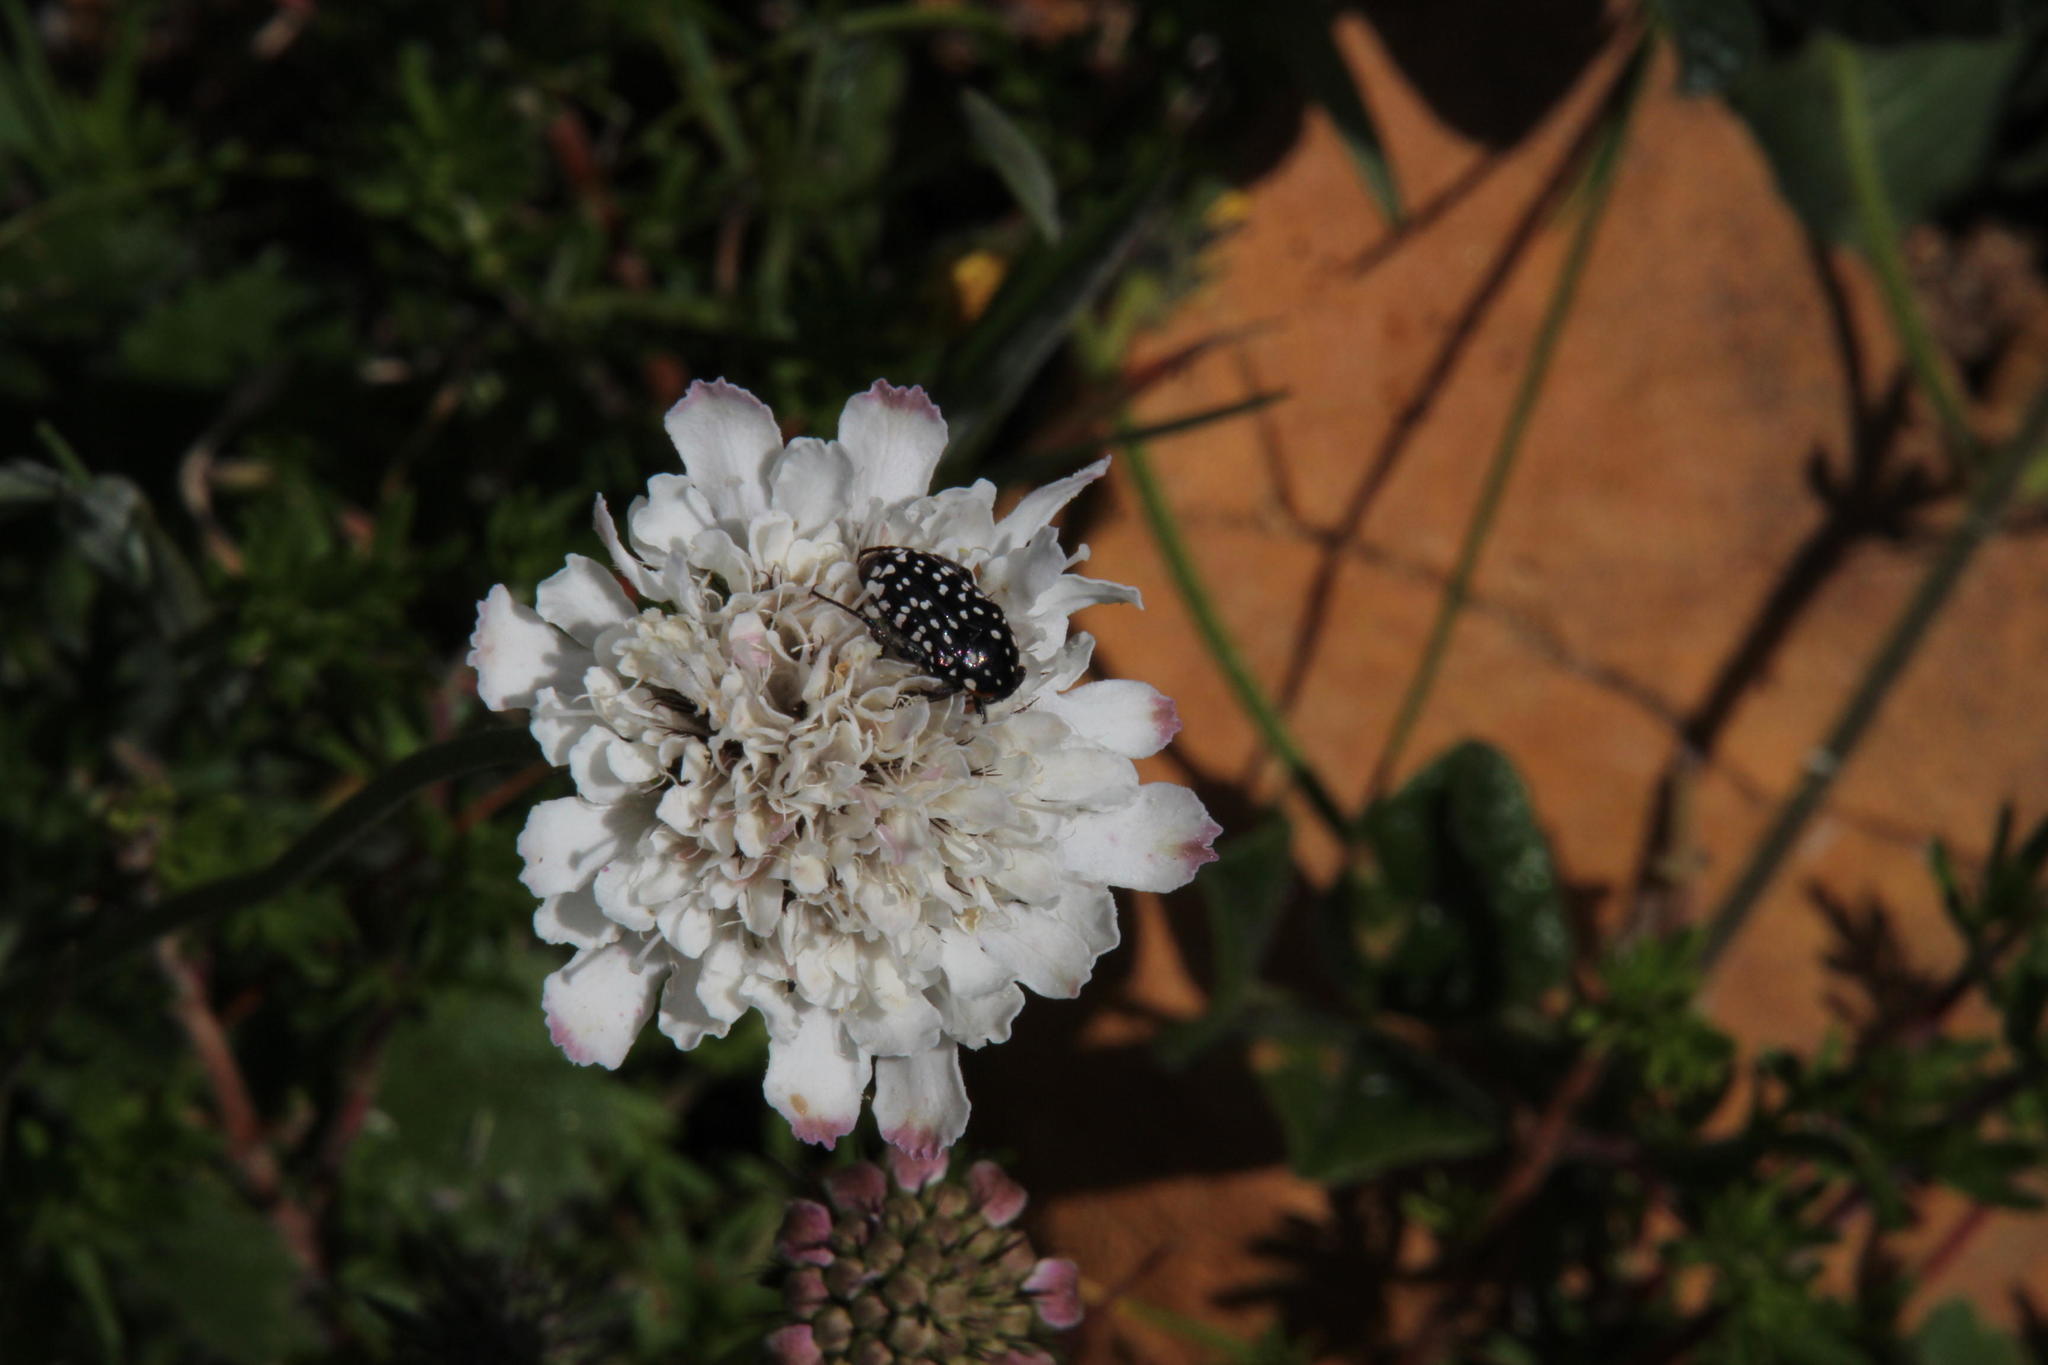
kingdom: Plantae
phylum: Tracheophyta
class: Magnoliopsida
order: Dipsacales
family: Caprifoliaceae
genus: Scabiosa
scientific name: Scabiosa columbaria
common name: Small scabious
